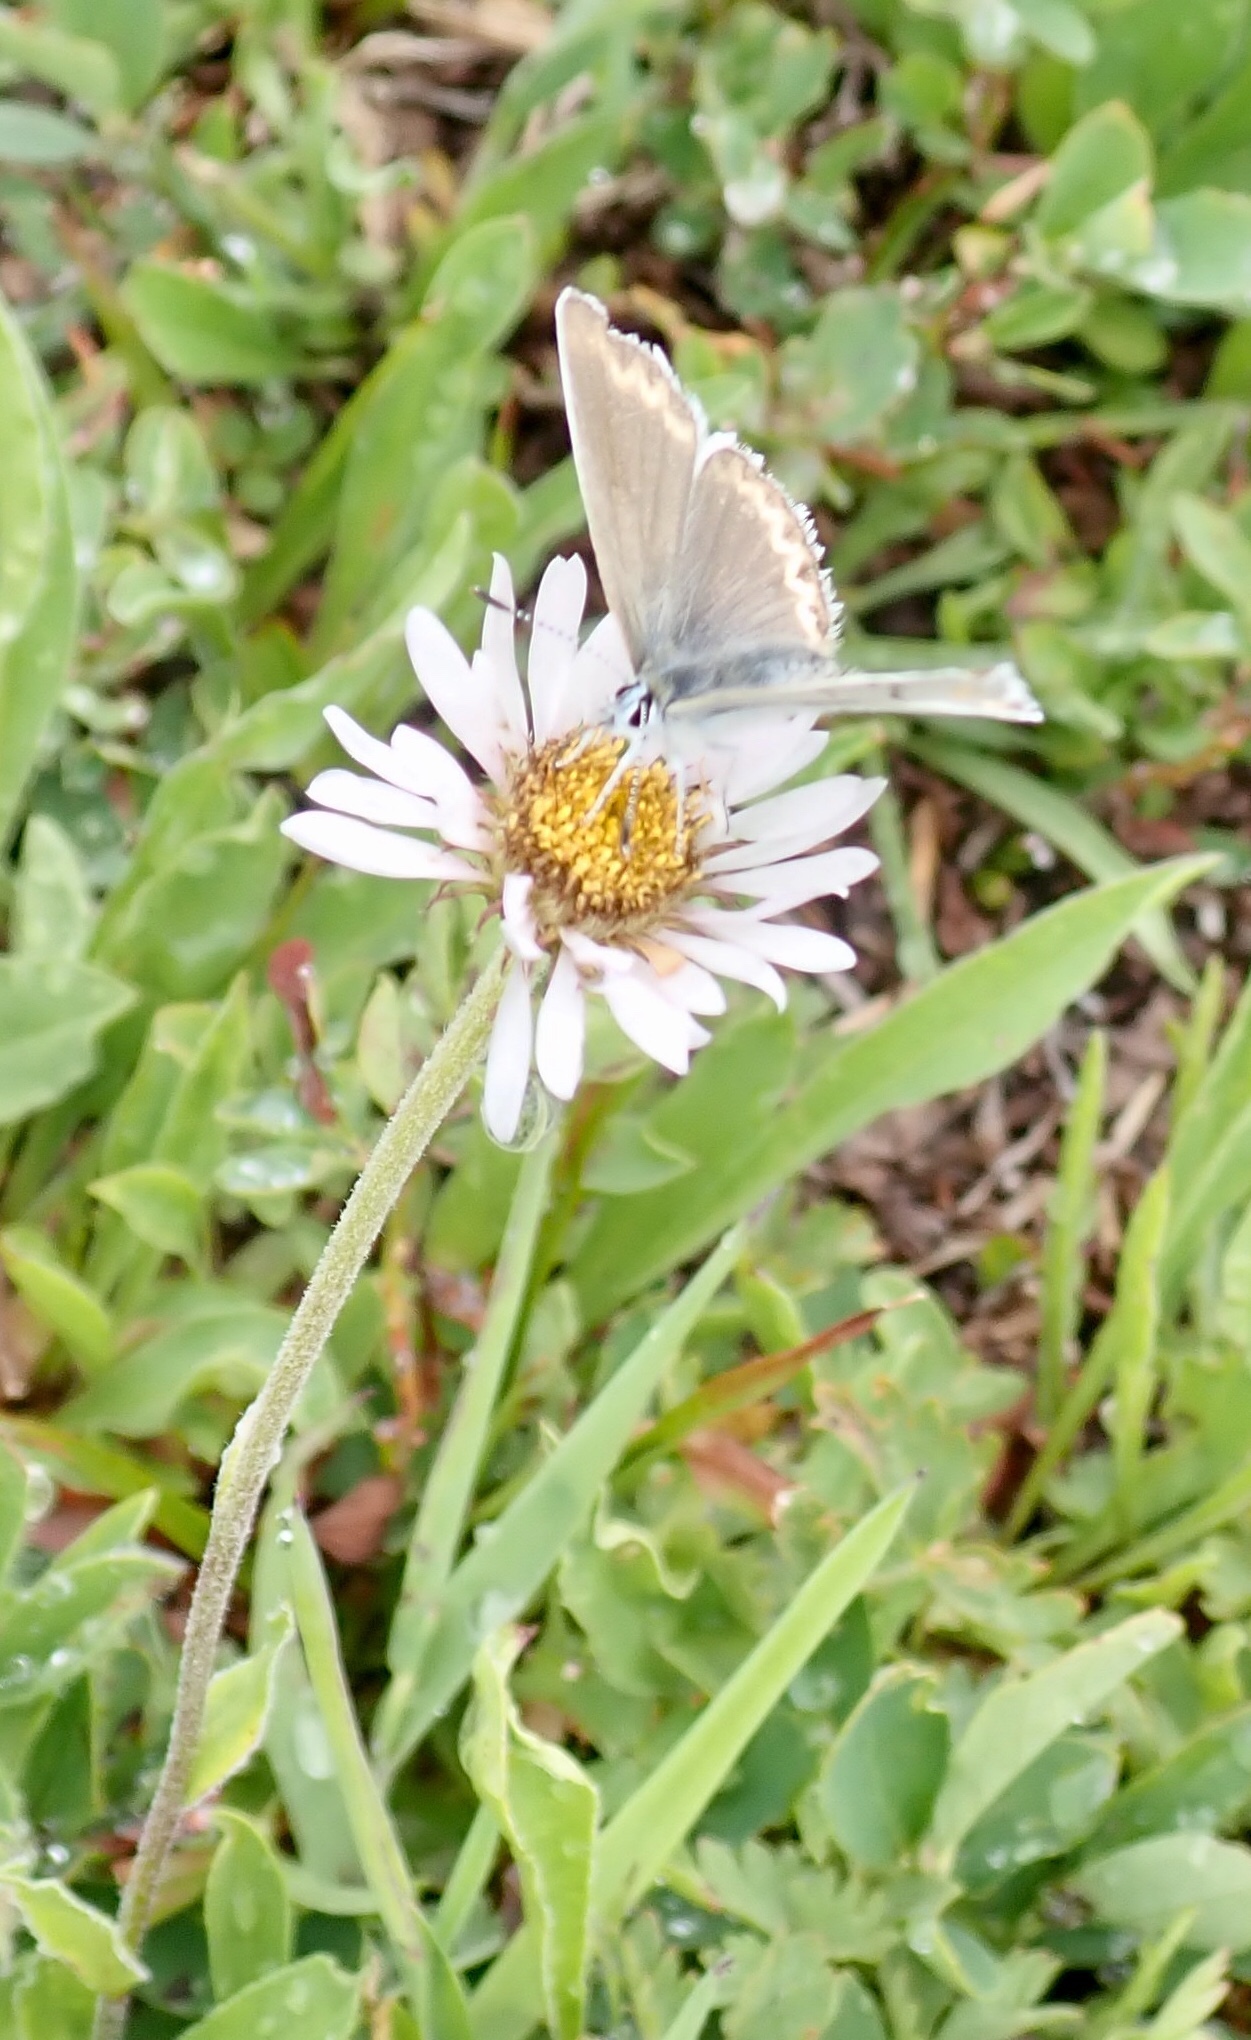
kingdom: Animalia
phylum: Arthropoda
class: Insecta
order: Lepidoptera
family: Lycaenidae
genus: Lycaeides
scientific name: Lycaeides anna
